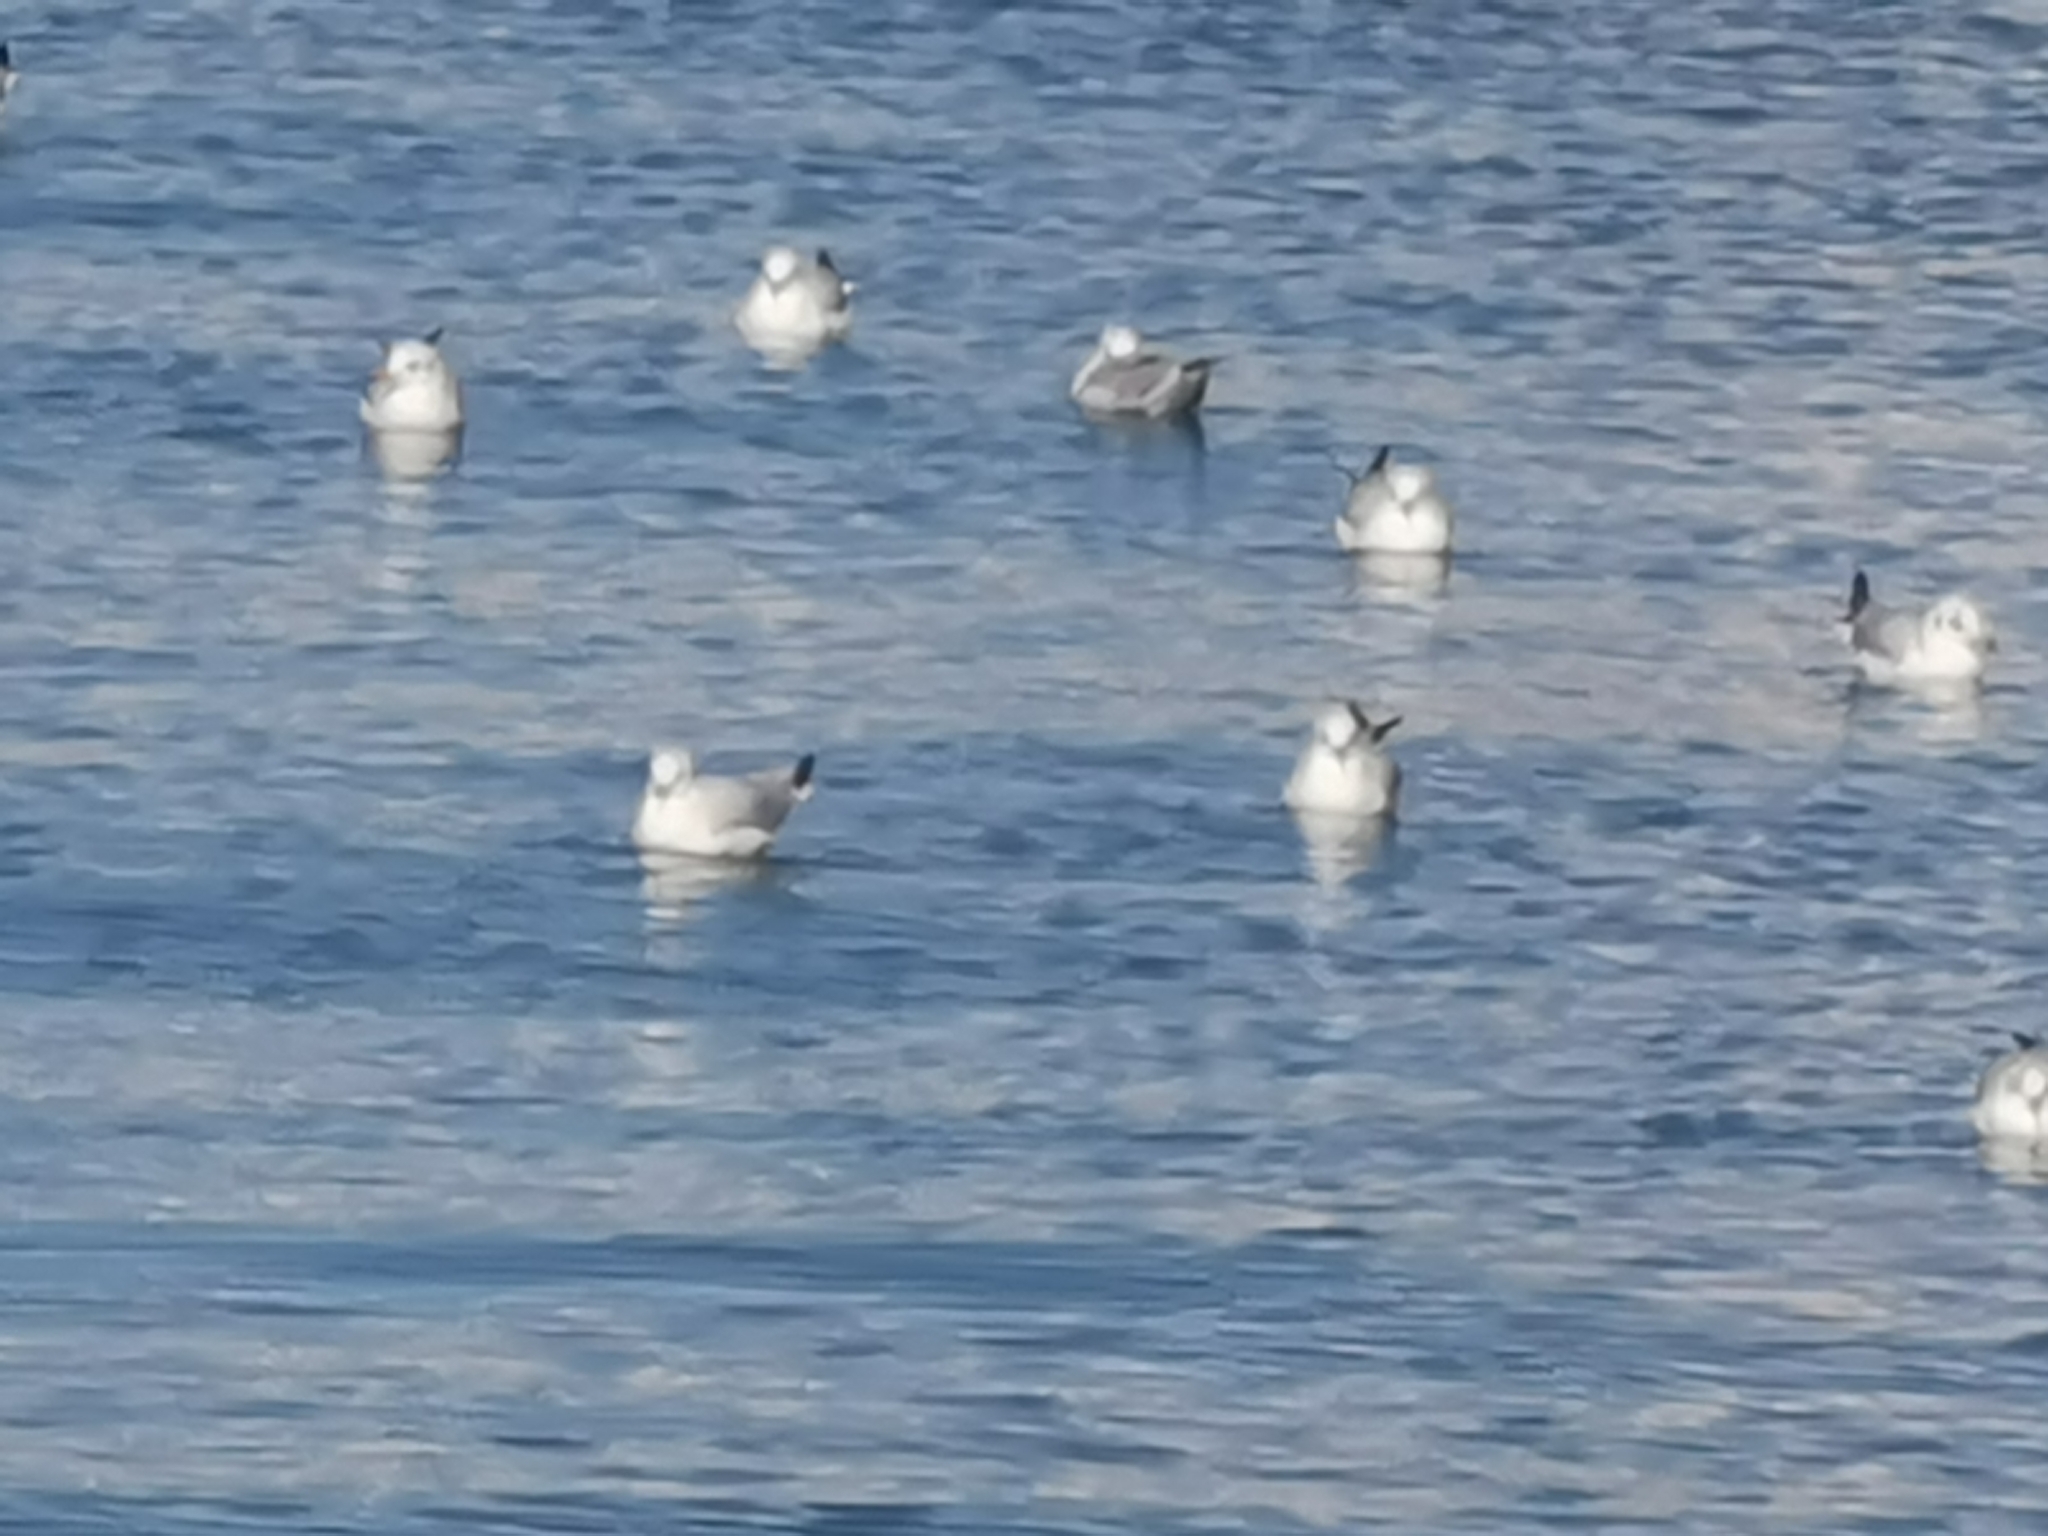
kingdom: Animalia
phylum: Chordata
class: Aves
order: Charadriiformes
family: Laridae
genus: Chroicocephalus
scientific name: Chroicocephalus ridibundus
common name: Black-headed gull
